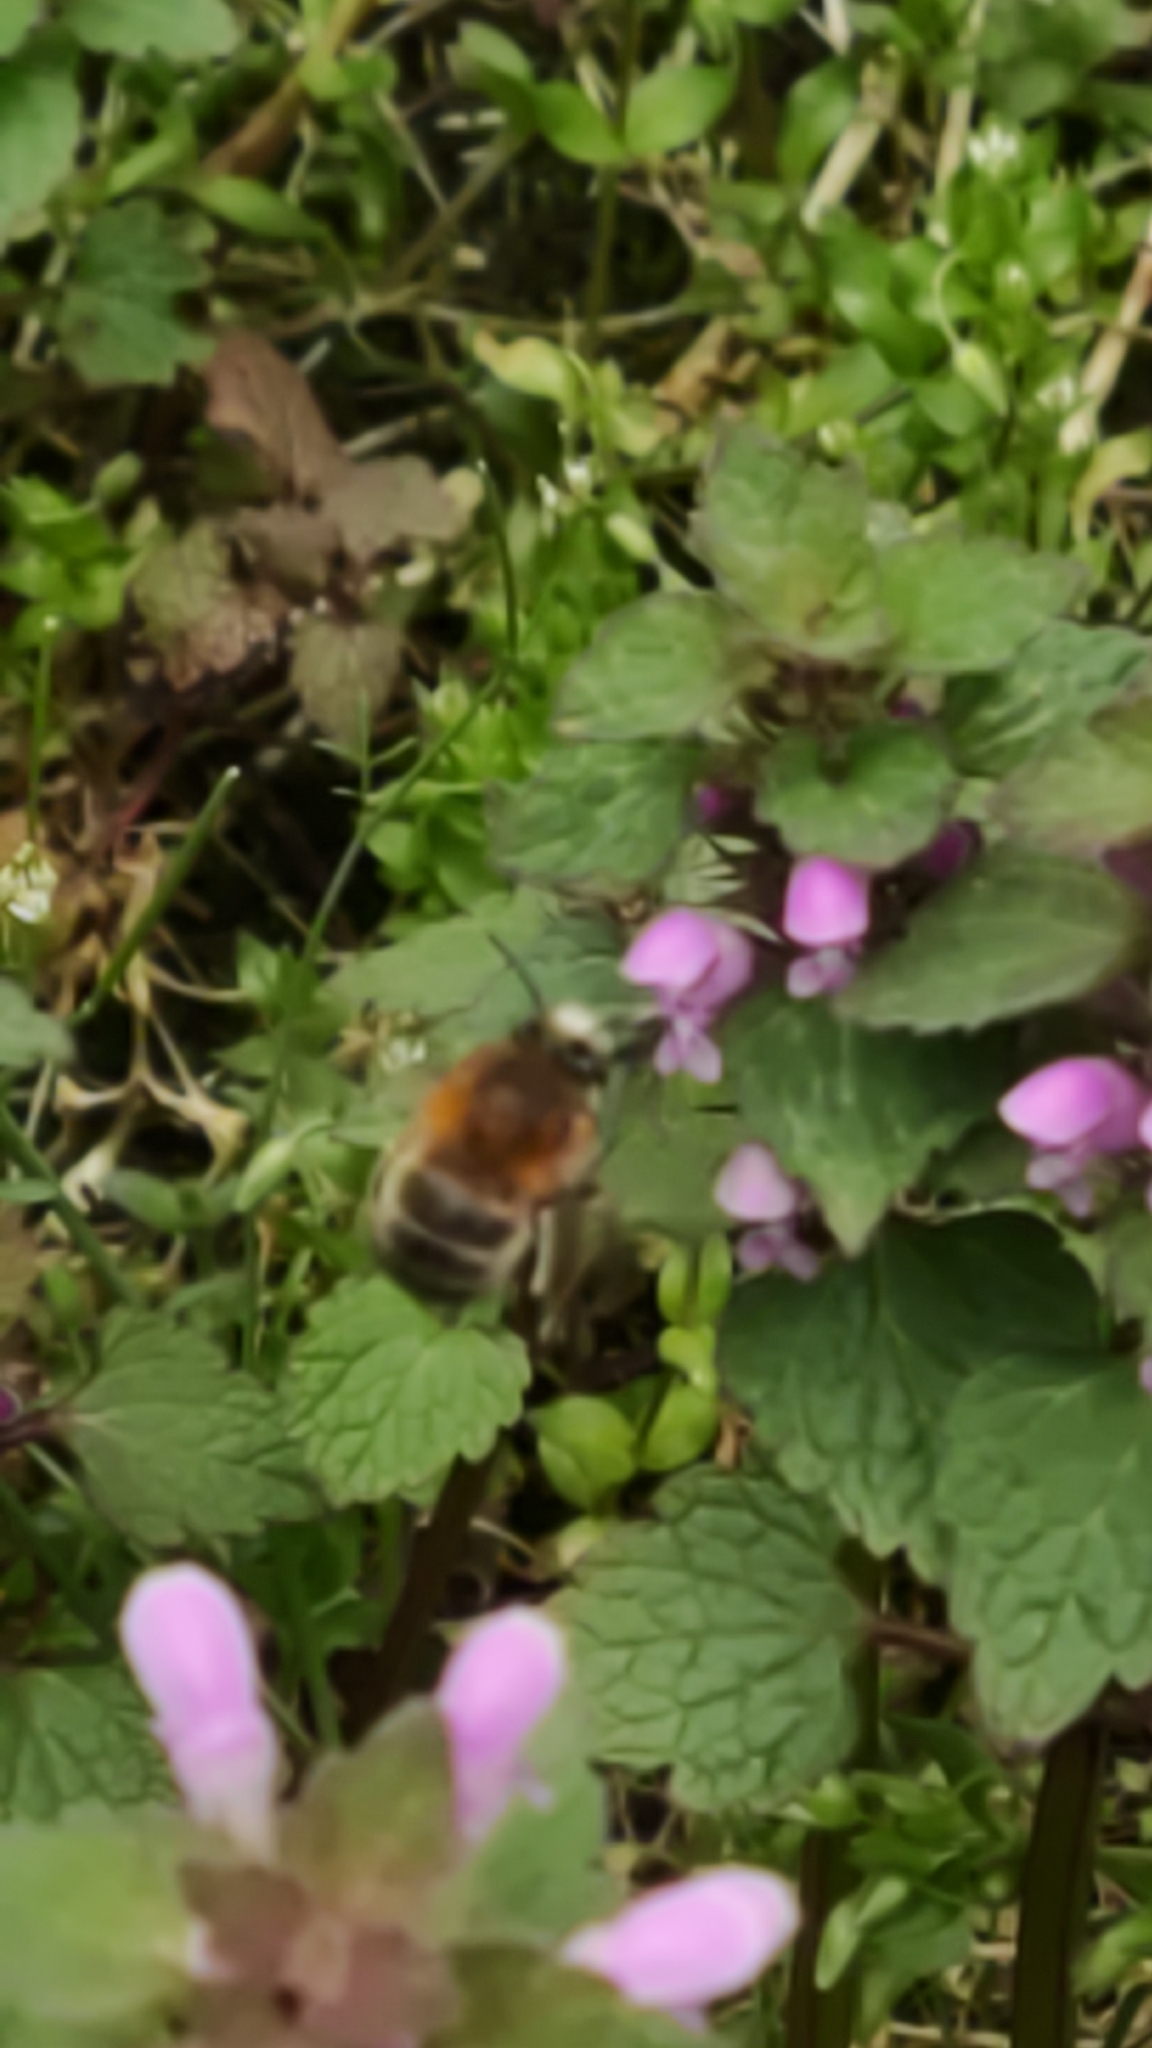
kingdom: Animalia
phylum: Arthropoda
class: Insecta
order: Hymenoptera
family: Apidae
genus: Anthophora
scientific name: Anthophora plumipes
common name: Hairy-footed flower bee
